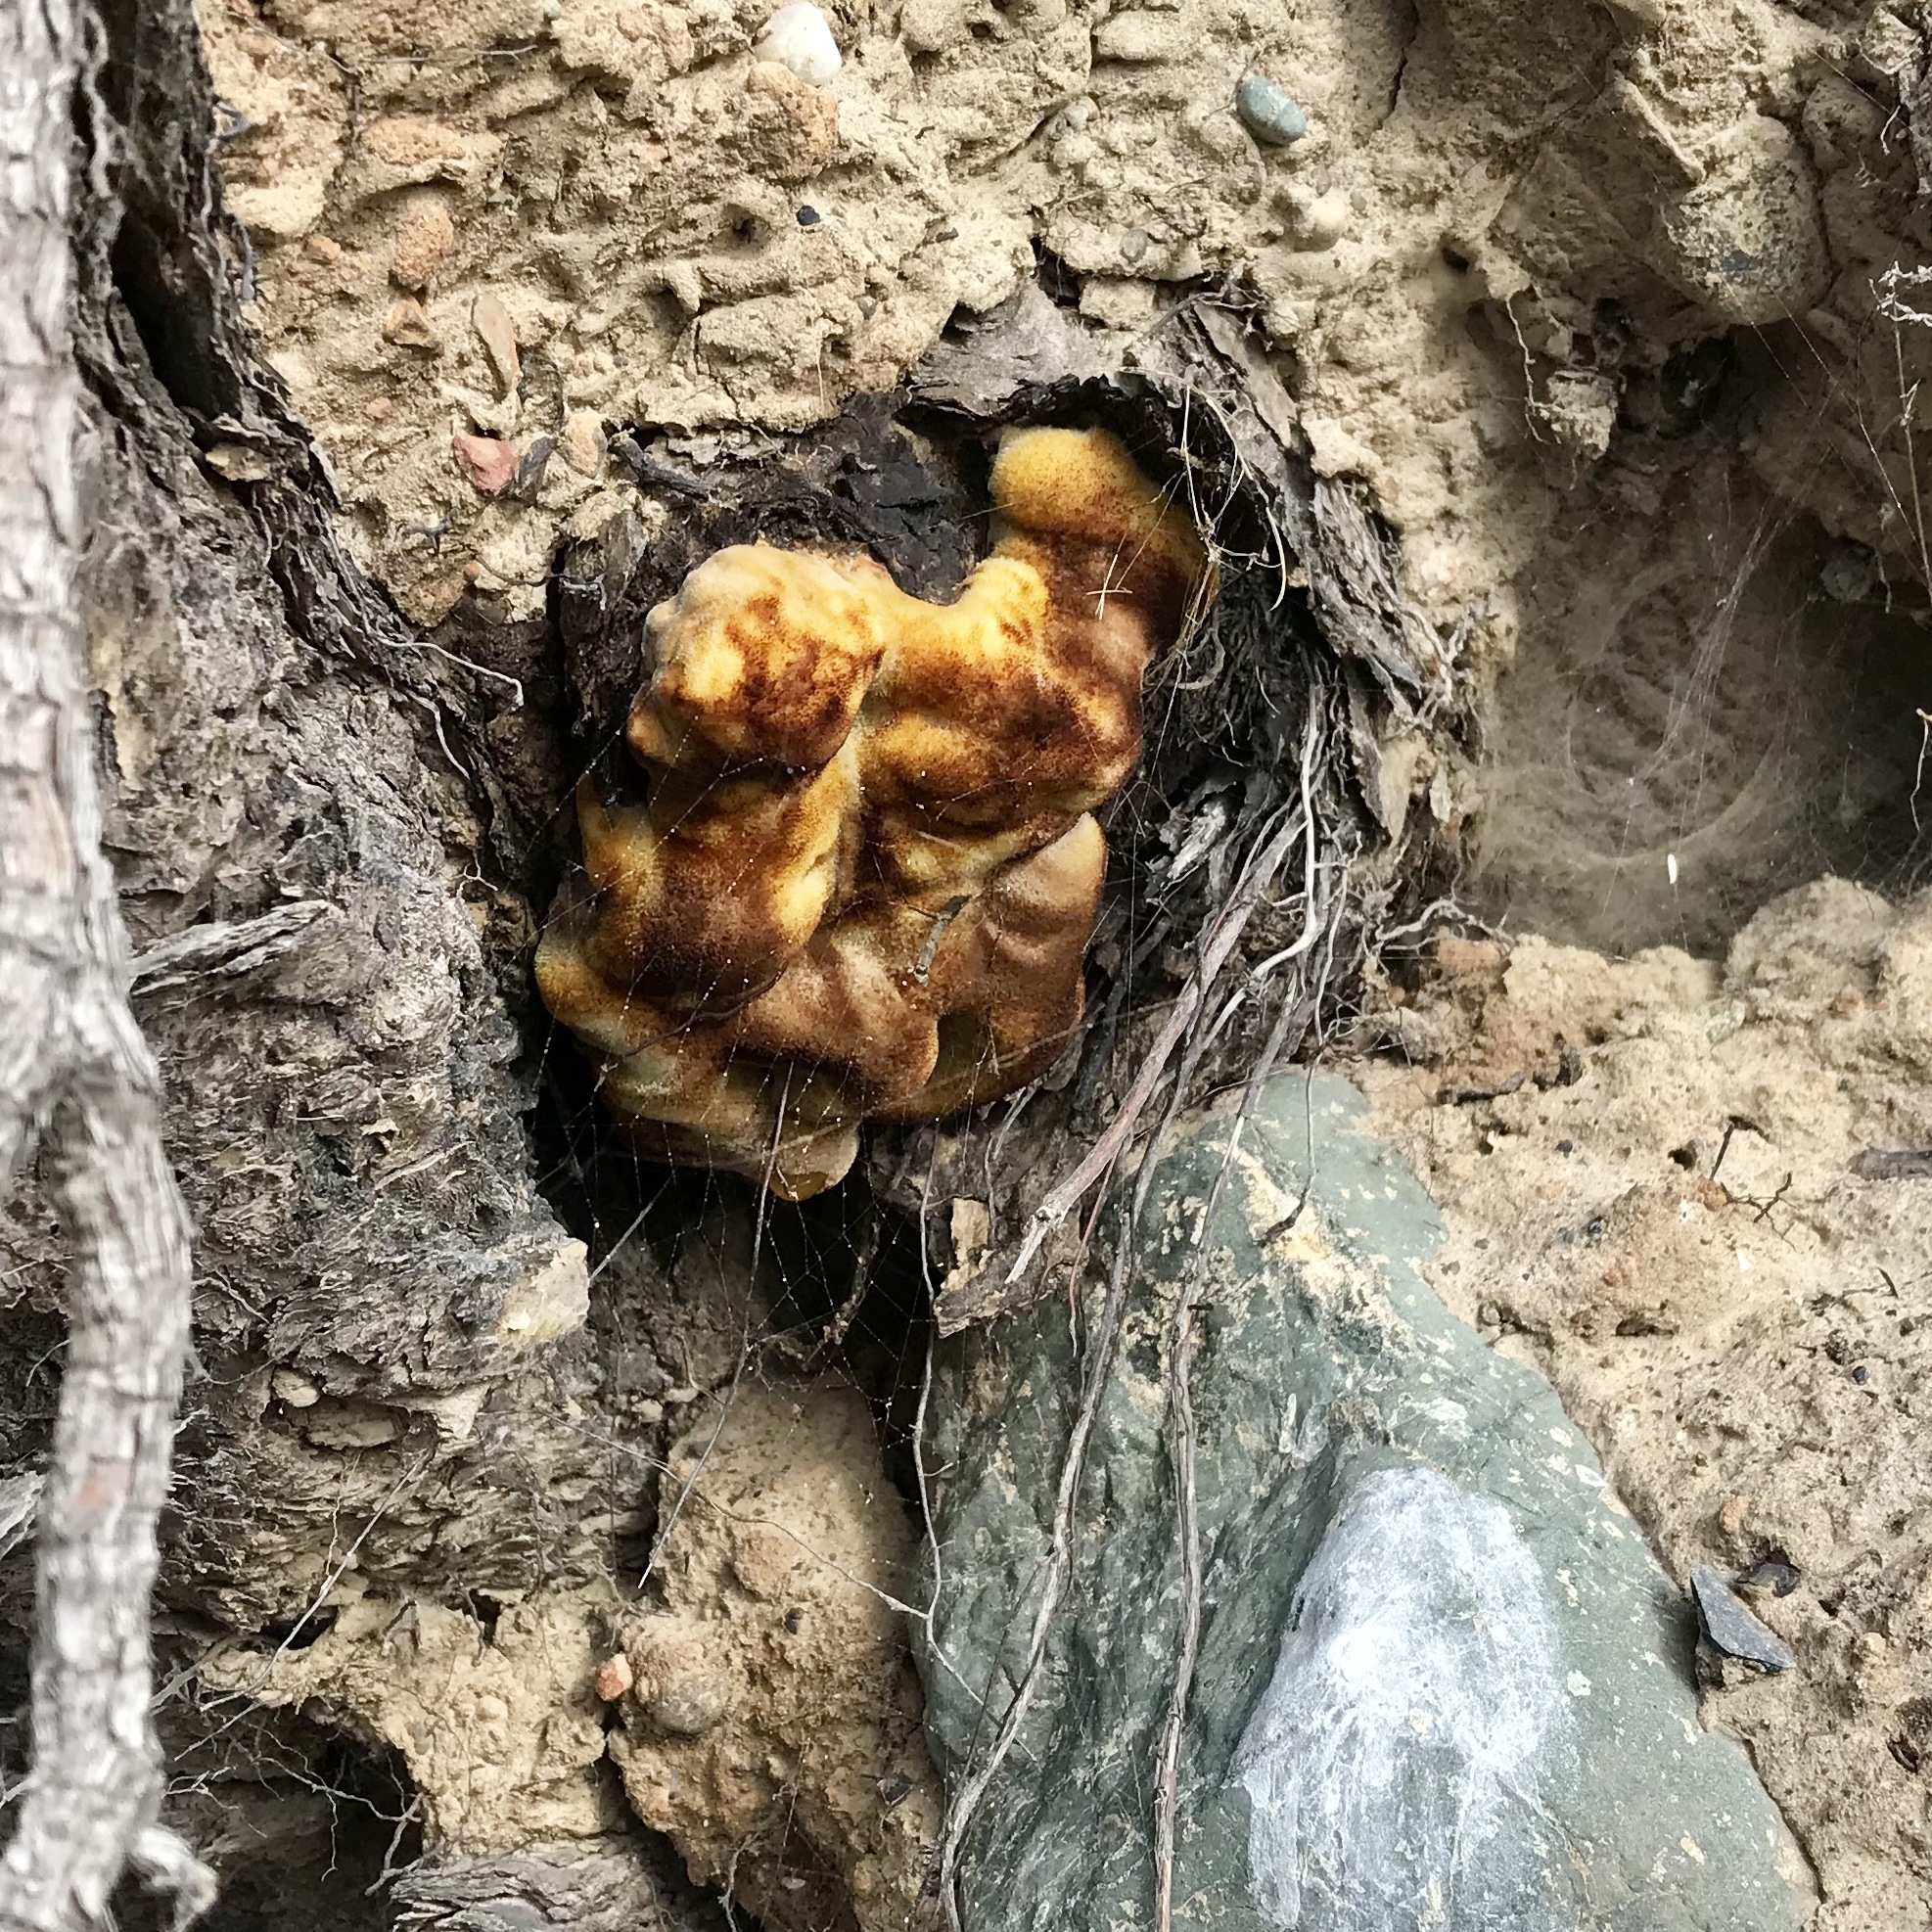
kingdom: Fungi
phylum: Basidiomycota
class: Agaricomycetes
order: Polyporales
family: Laetiporaceae
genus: Phaeolus
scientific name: Phaeolus schweinitzii
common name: Dyer's mazegill
